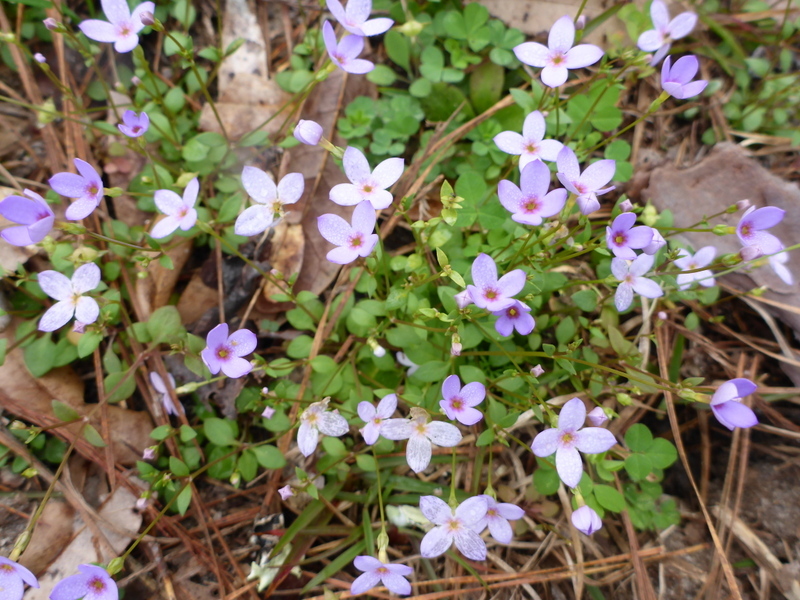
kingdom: Plantae
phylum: Tracheophyta
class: Magnoliopsida
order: Gentianales
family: Rubiaceae
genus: Houstonia
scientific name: Houstonia pusilla
